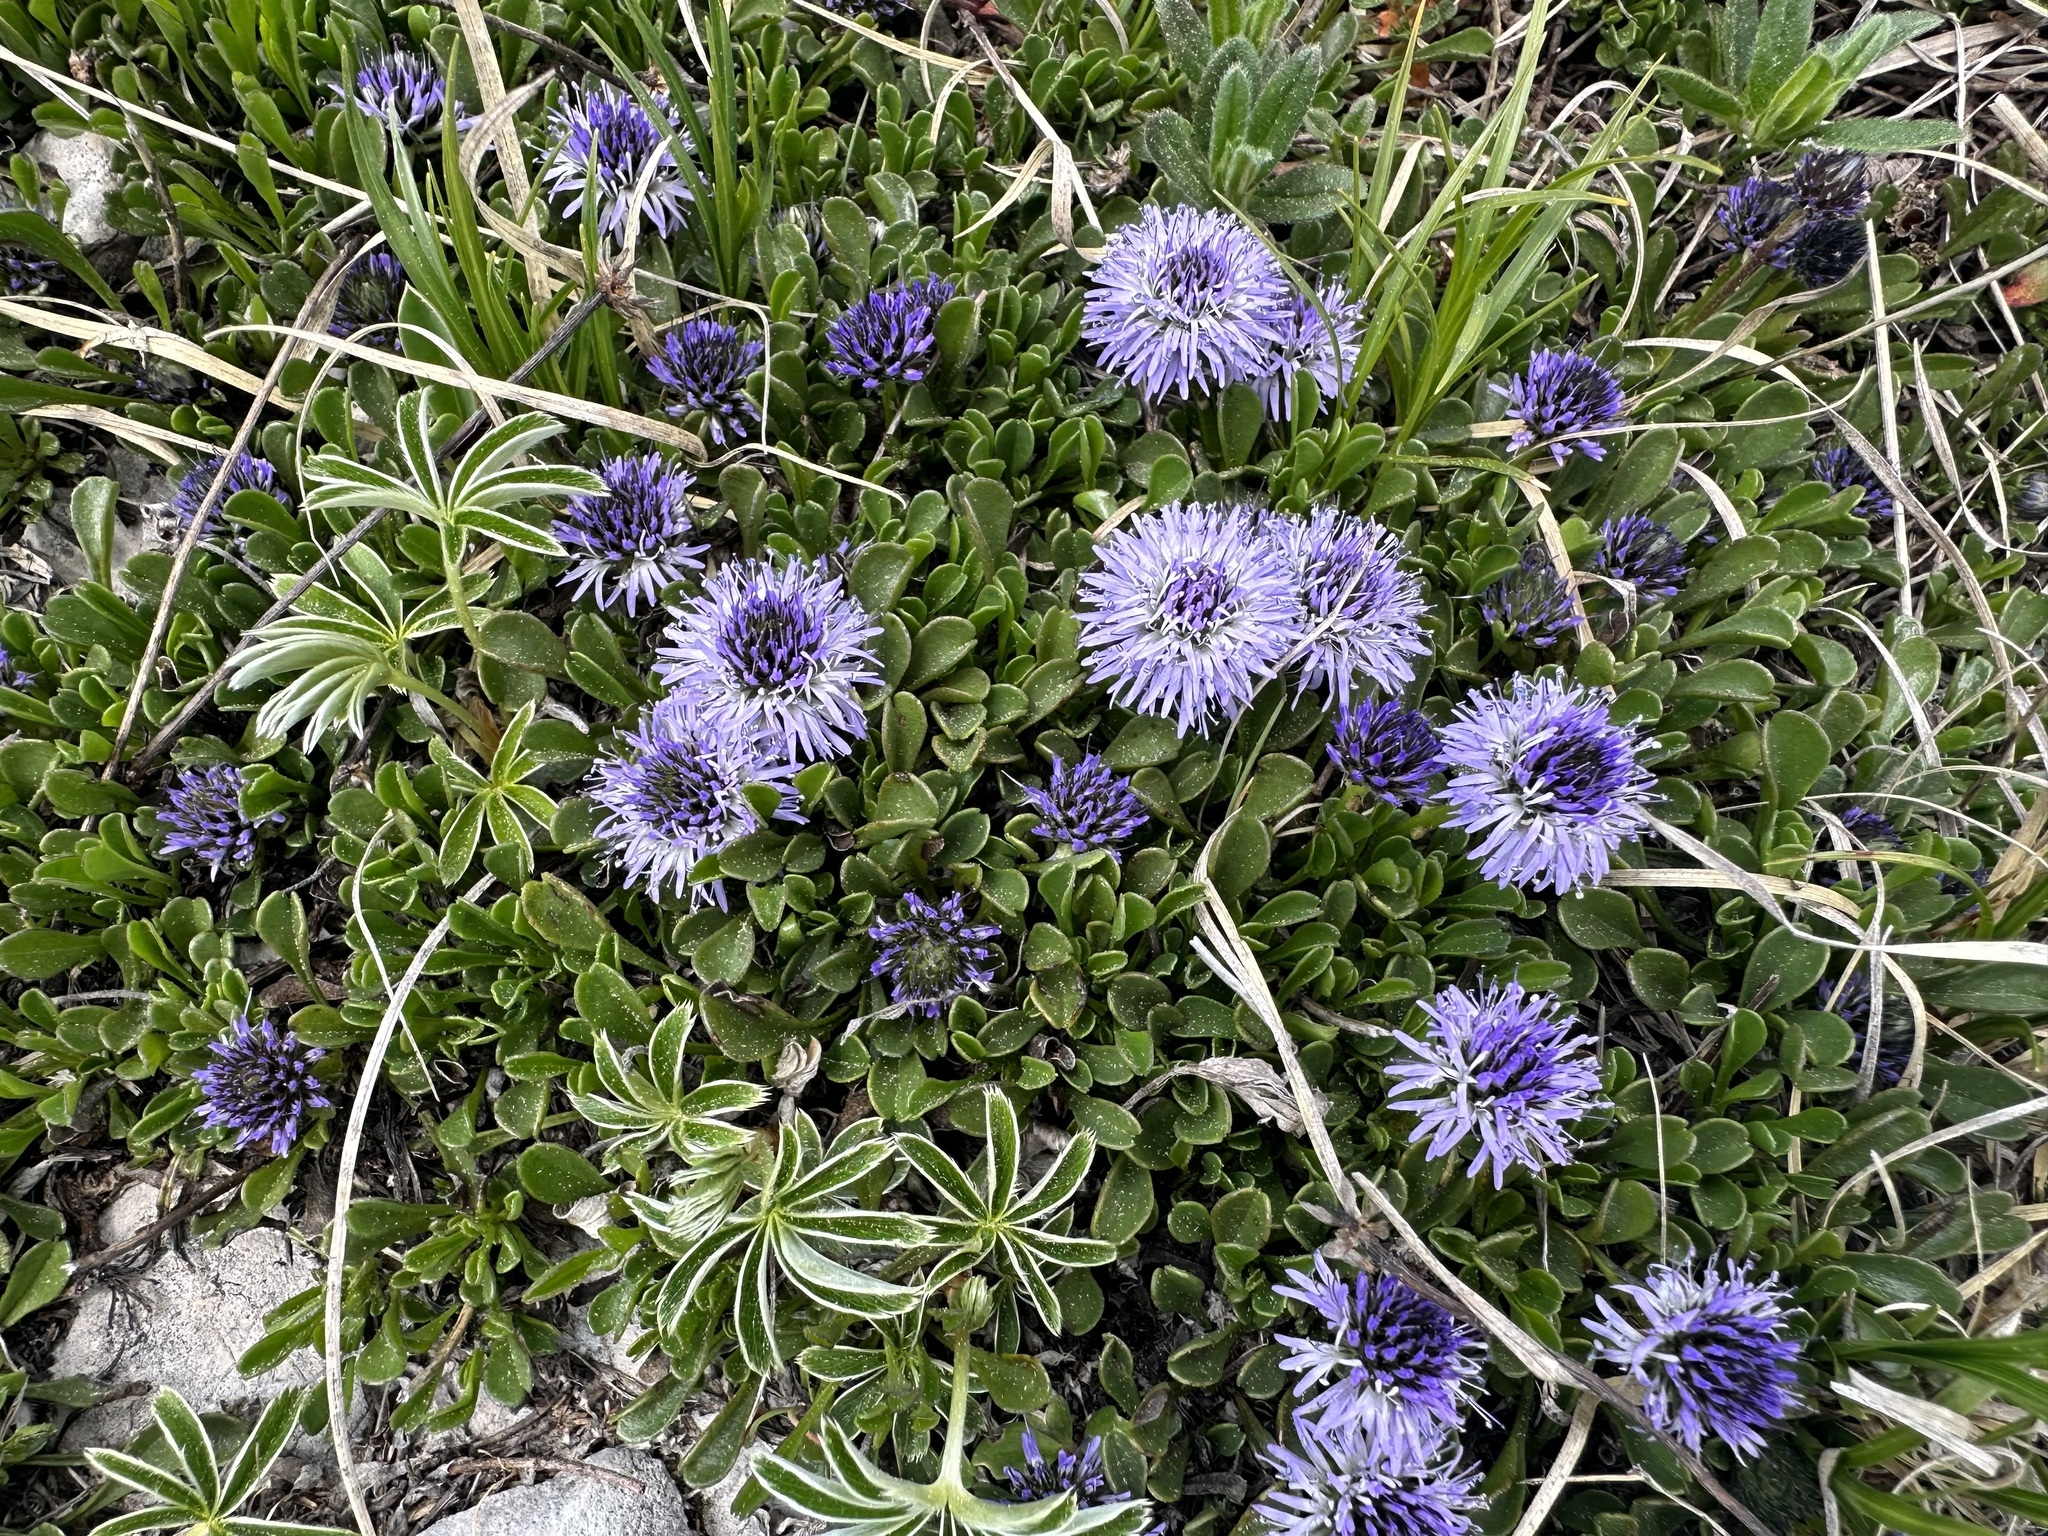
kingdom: Plantae
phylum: Tracheophyta
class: Magnoliopsida
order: Lamiales
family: Plantaginaceae
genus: Globularia
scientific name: Globularia cordifolia
